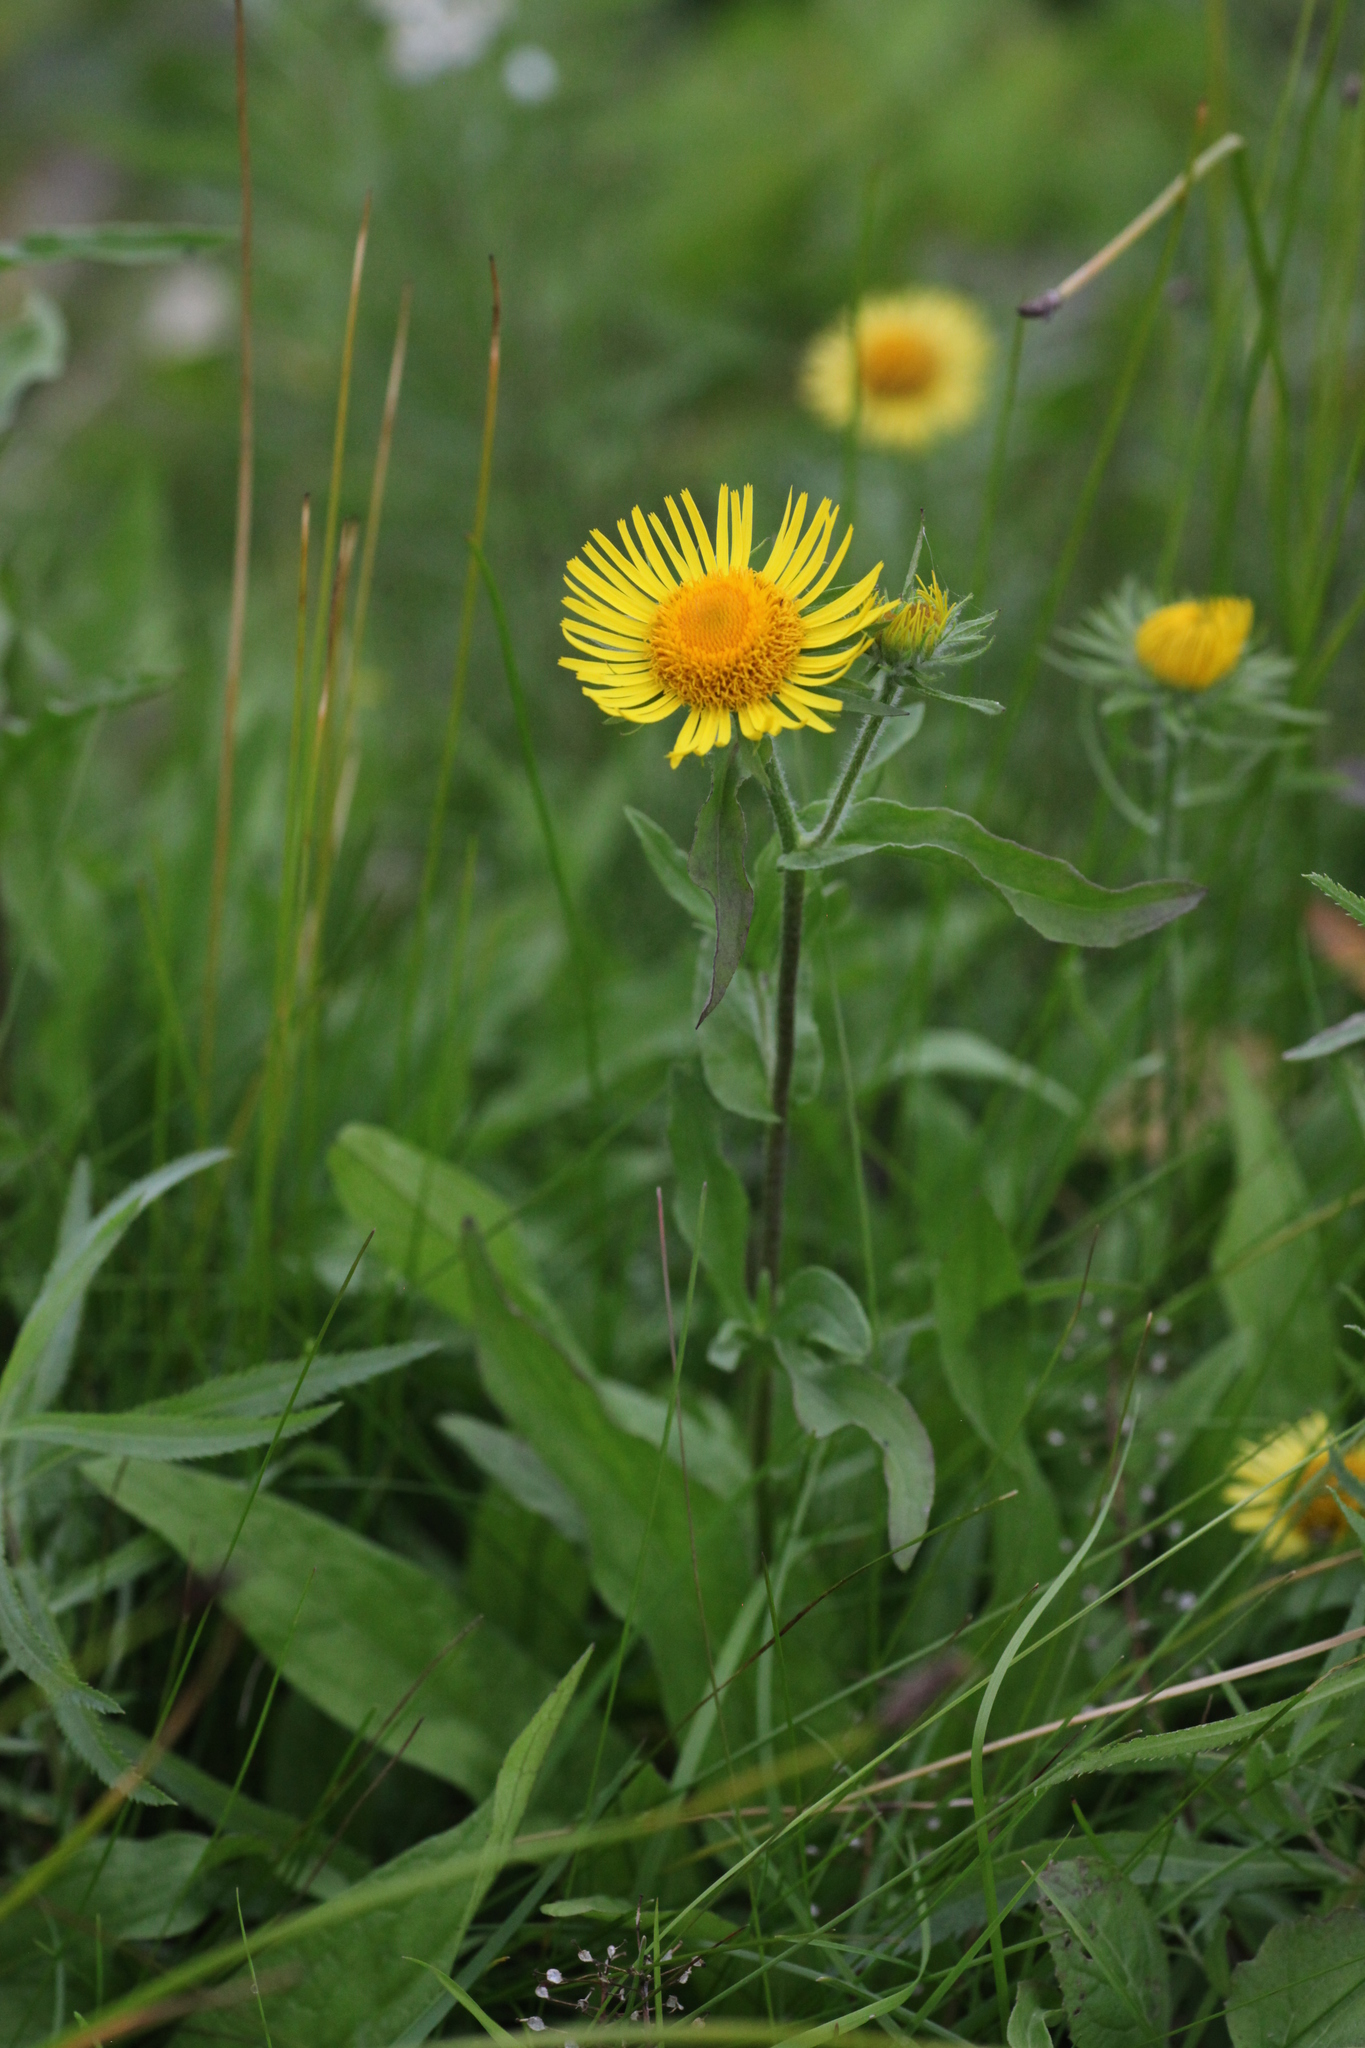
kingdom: Plantae
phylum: Tracheophyta
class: Magnoliopsida
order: Asterales
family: Asteraceae
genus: Pentanema
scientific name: Pentanema britannicum
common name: British elecampane
